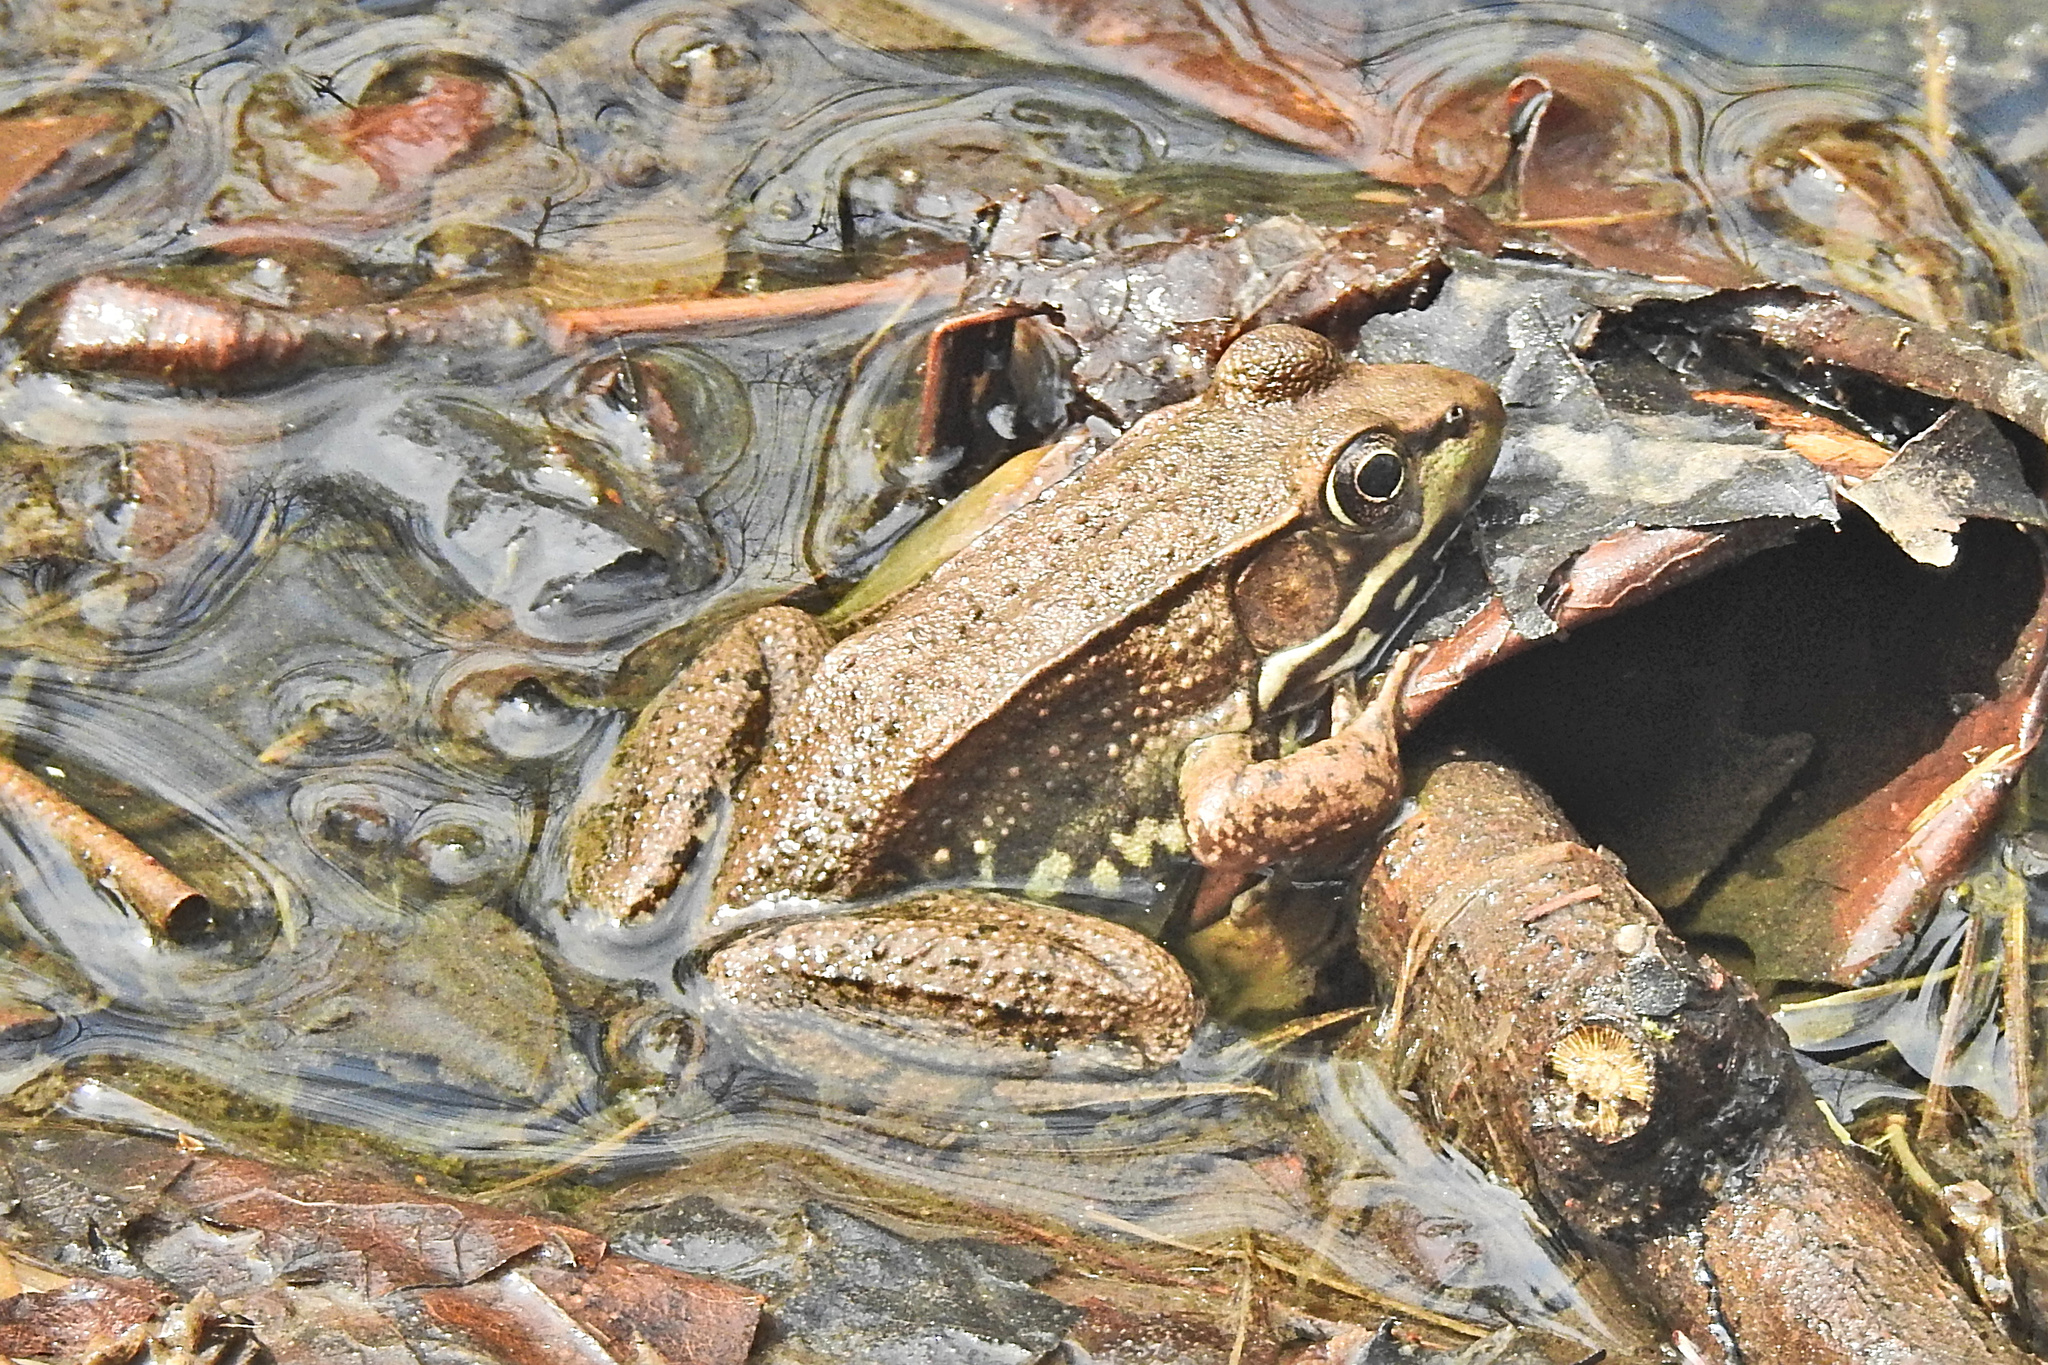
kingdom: Animalia
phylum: Chordata
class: Amphibia
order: Anura
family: Ranidae
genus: Lithobates
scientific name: Lithobates clamitans
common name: Green frog
